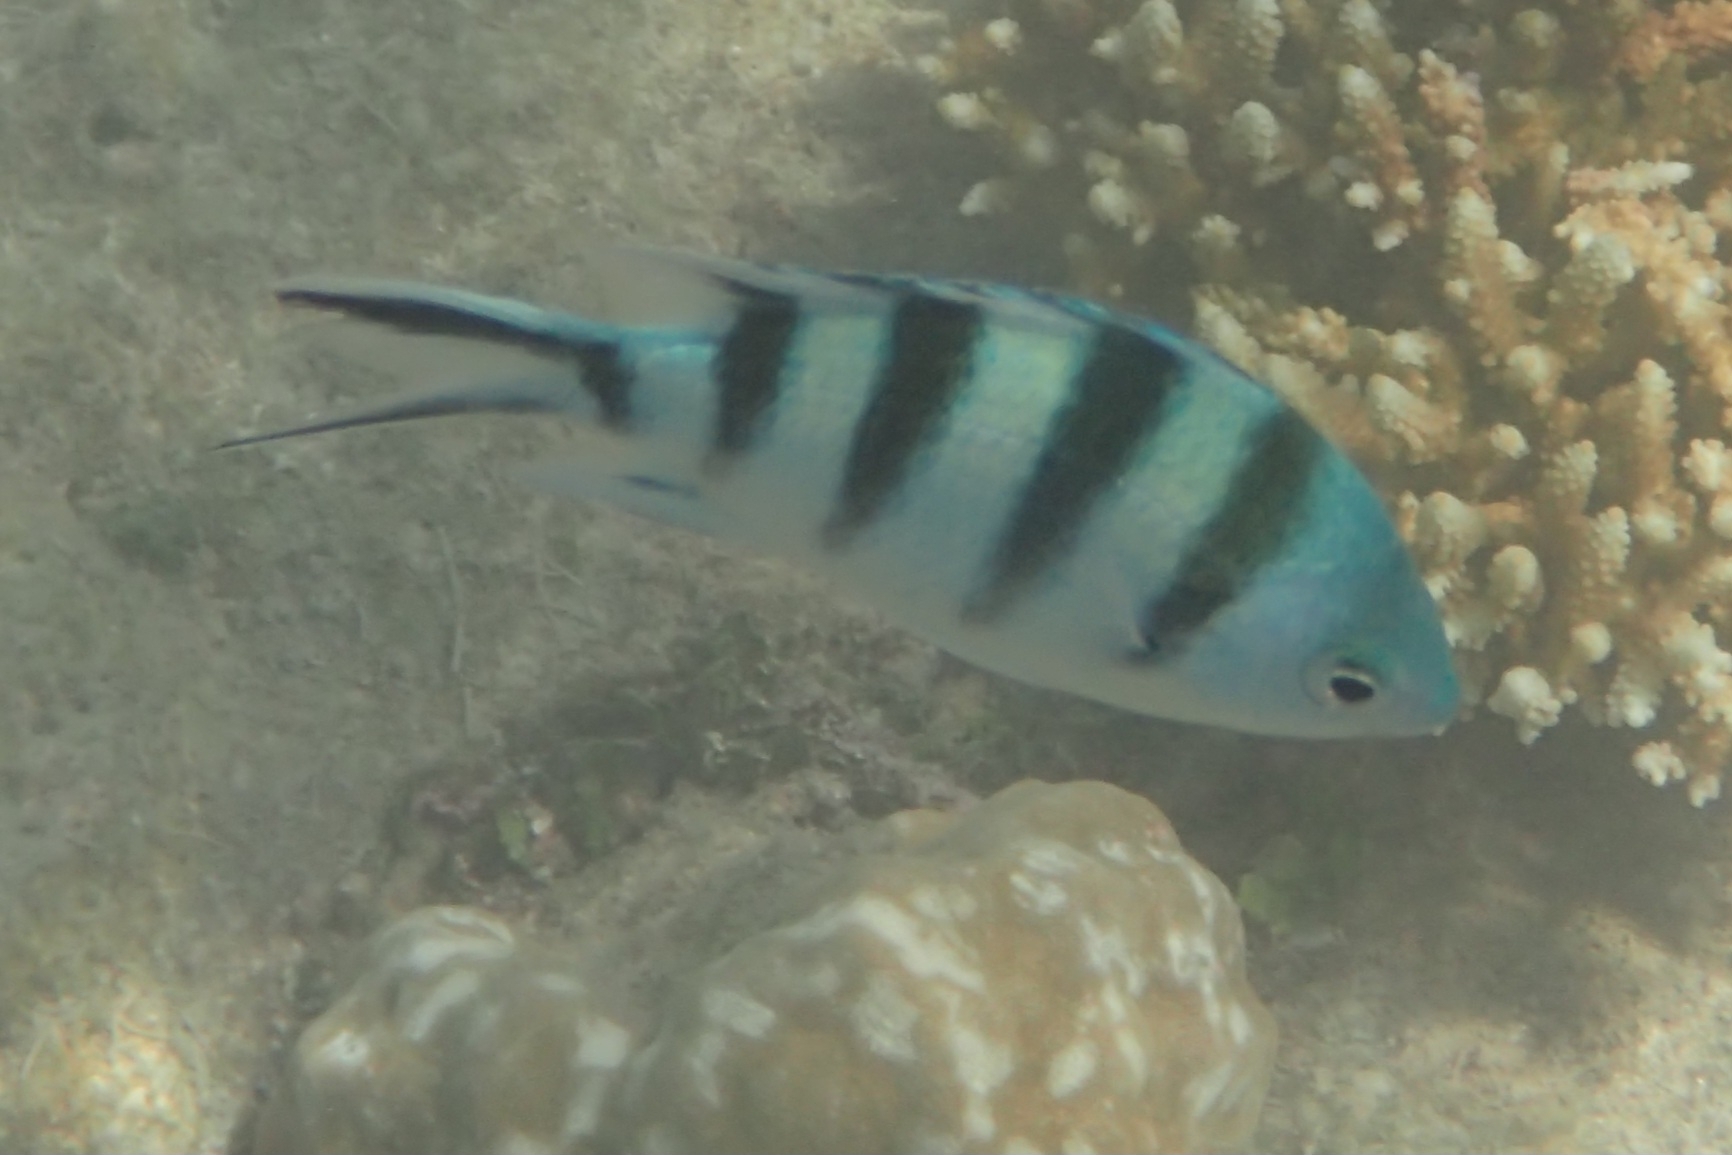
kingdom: Animalia
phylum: Chordata
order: Perciformes
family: Pomacentridae
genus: Abudefduf
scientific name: Abudefduf sexfasciatus
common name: Scissortail sergeant
